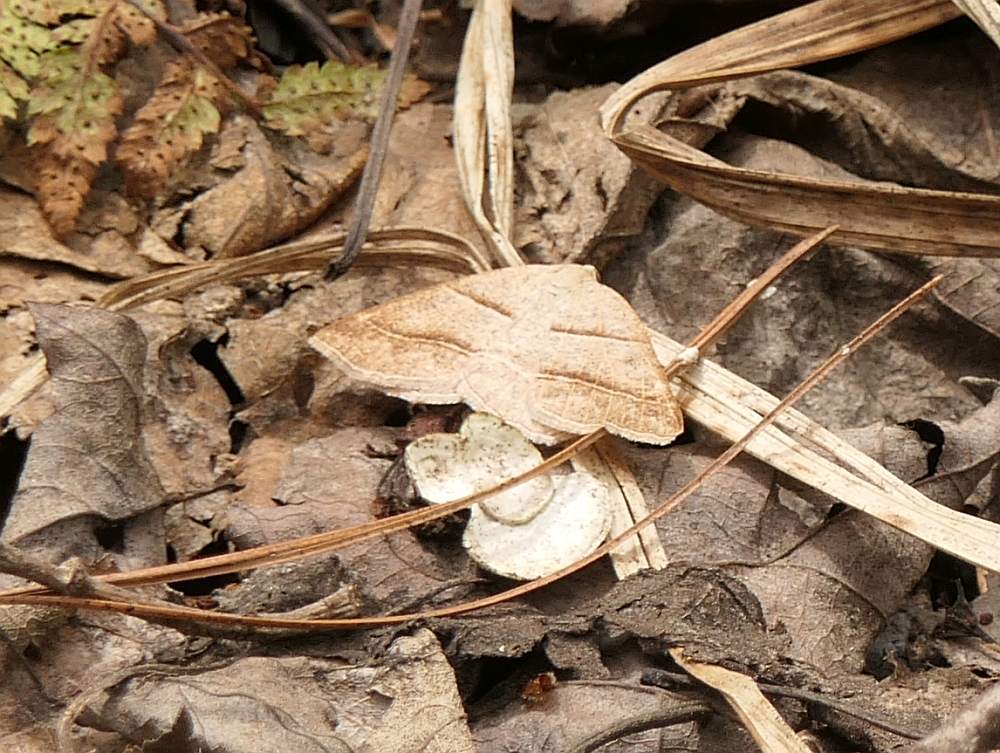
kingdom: Animalia
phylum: Arthropoda
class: Insecta
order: Lepidoptera
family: Pterophoridae
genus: Pterophorus
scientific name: Pterophorus Petrophora subaequaria
